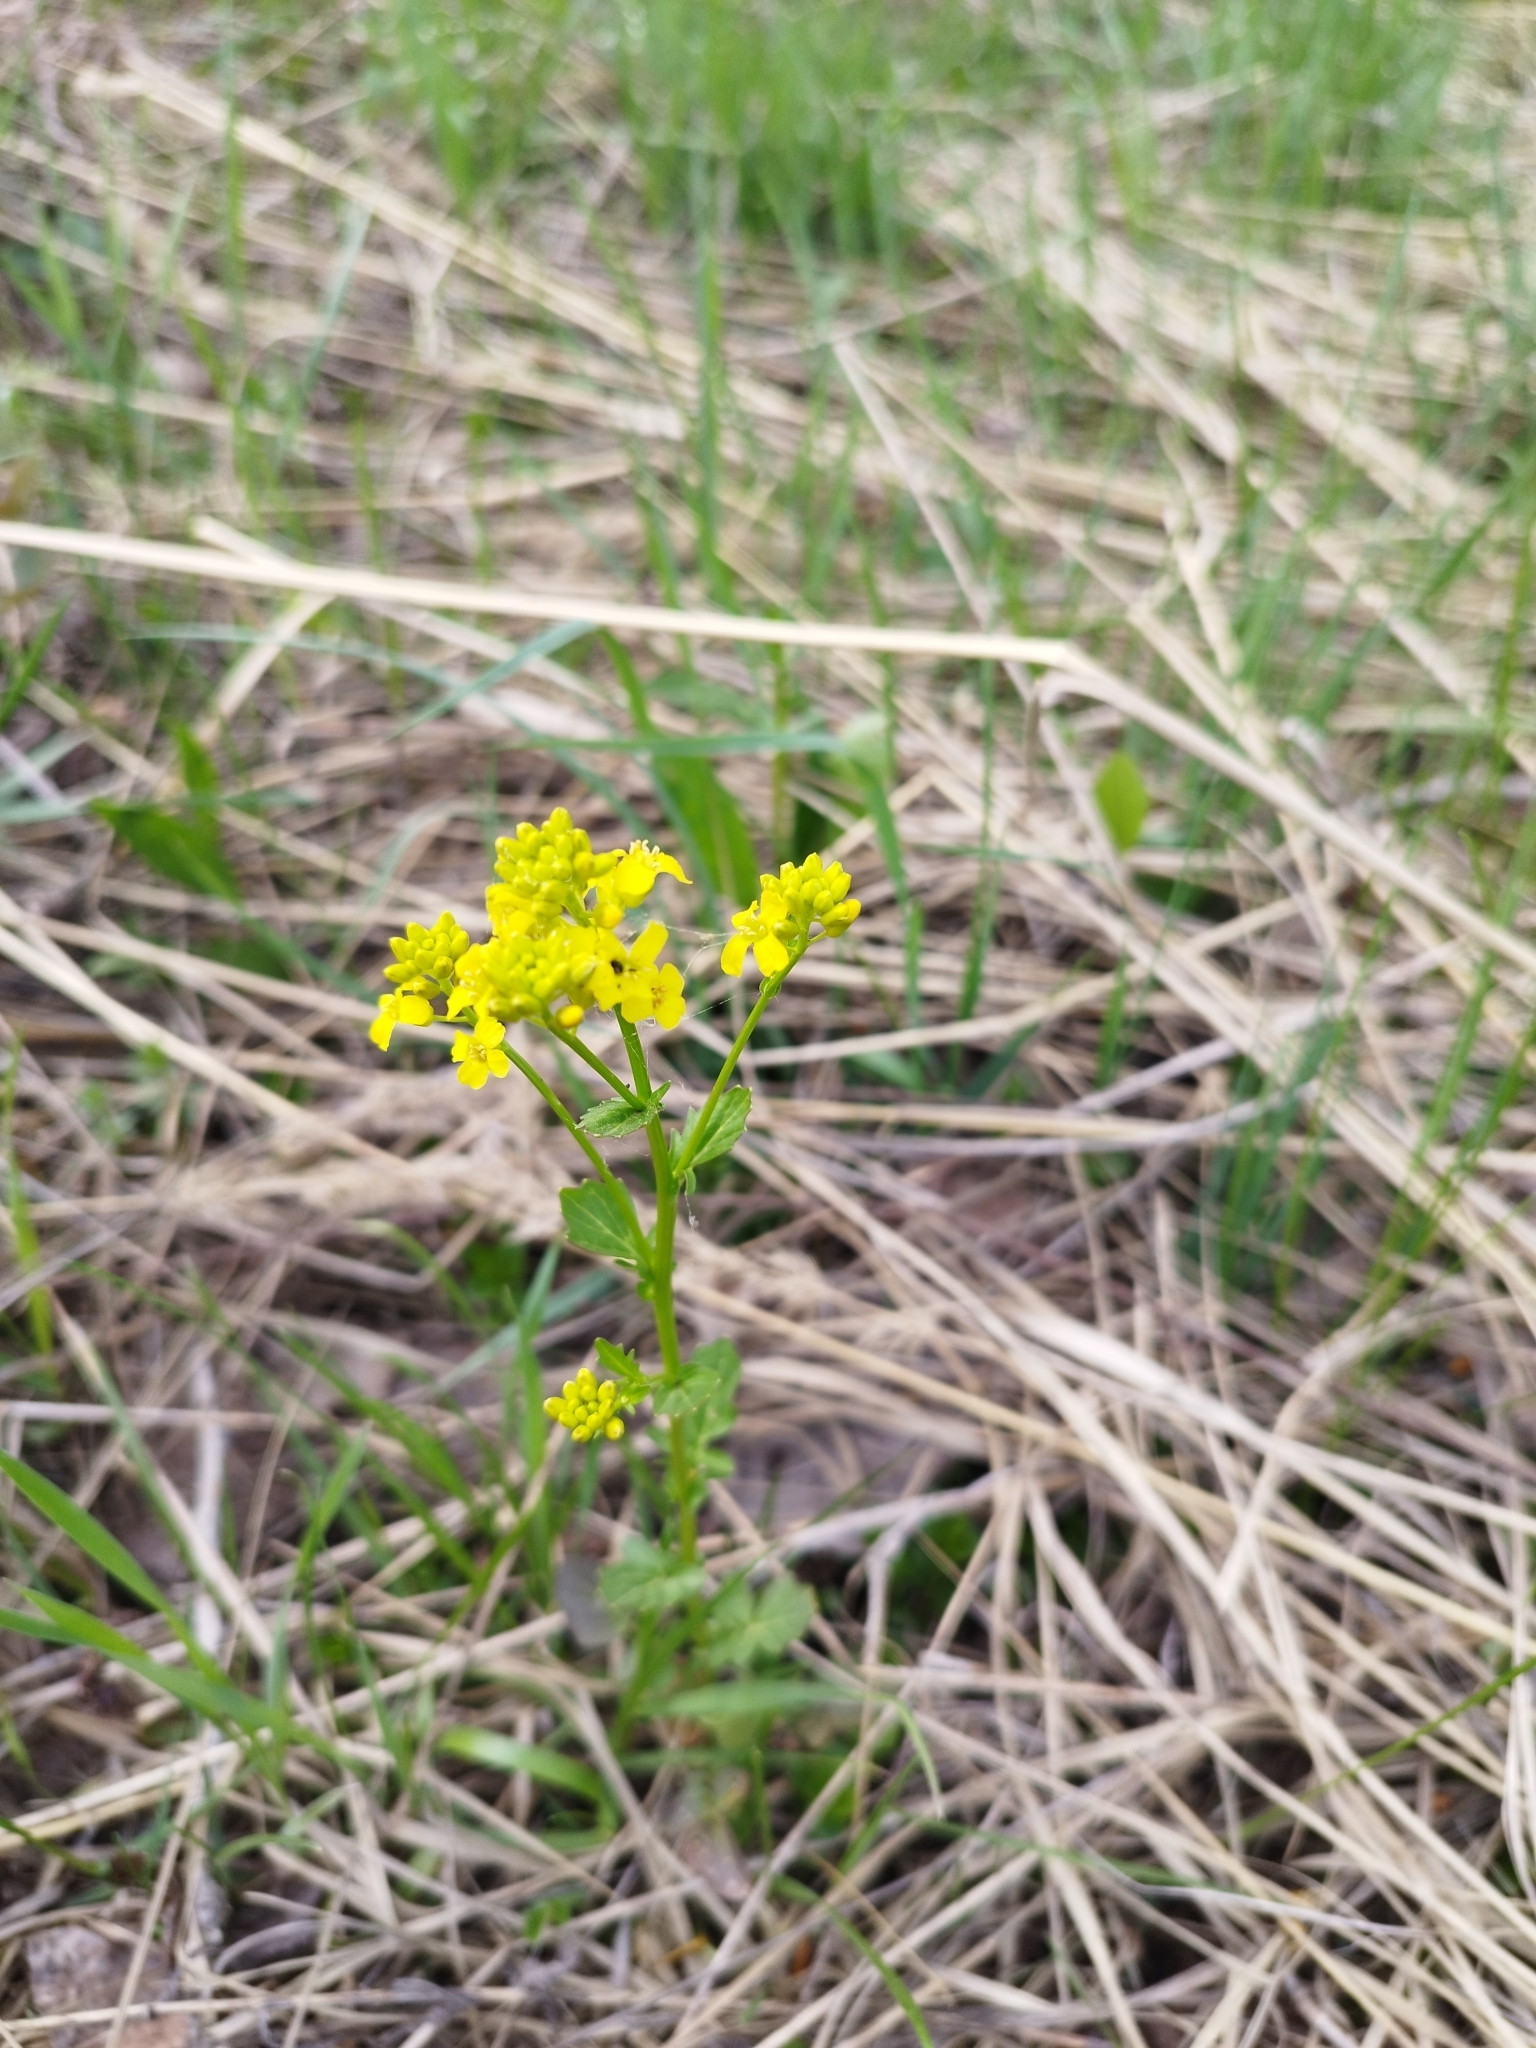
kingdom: Plantae
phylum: Tracheophyta
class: Magnoliopsida
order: Brassicales
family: Brassicaceae
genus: Barbarea
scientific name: Barbarea vulgaris
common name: Cressy-greens
